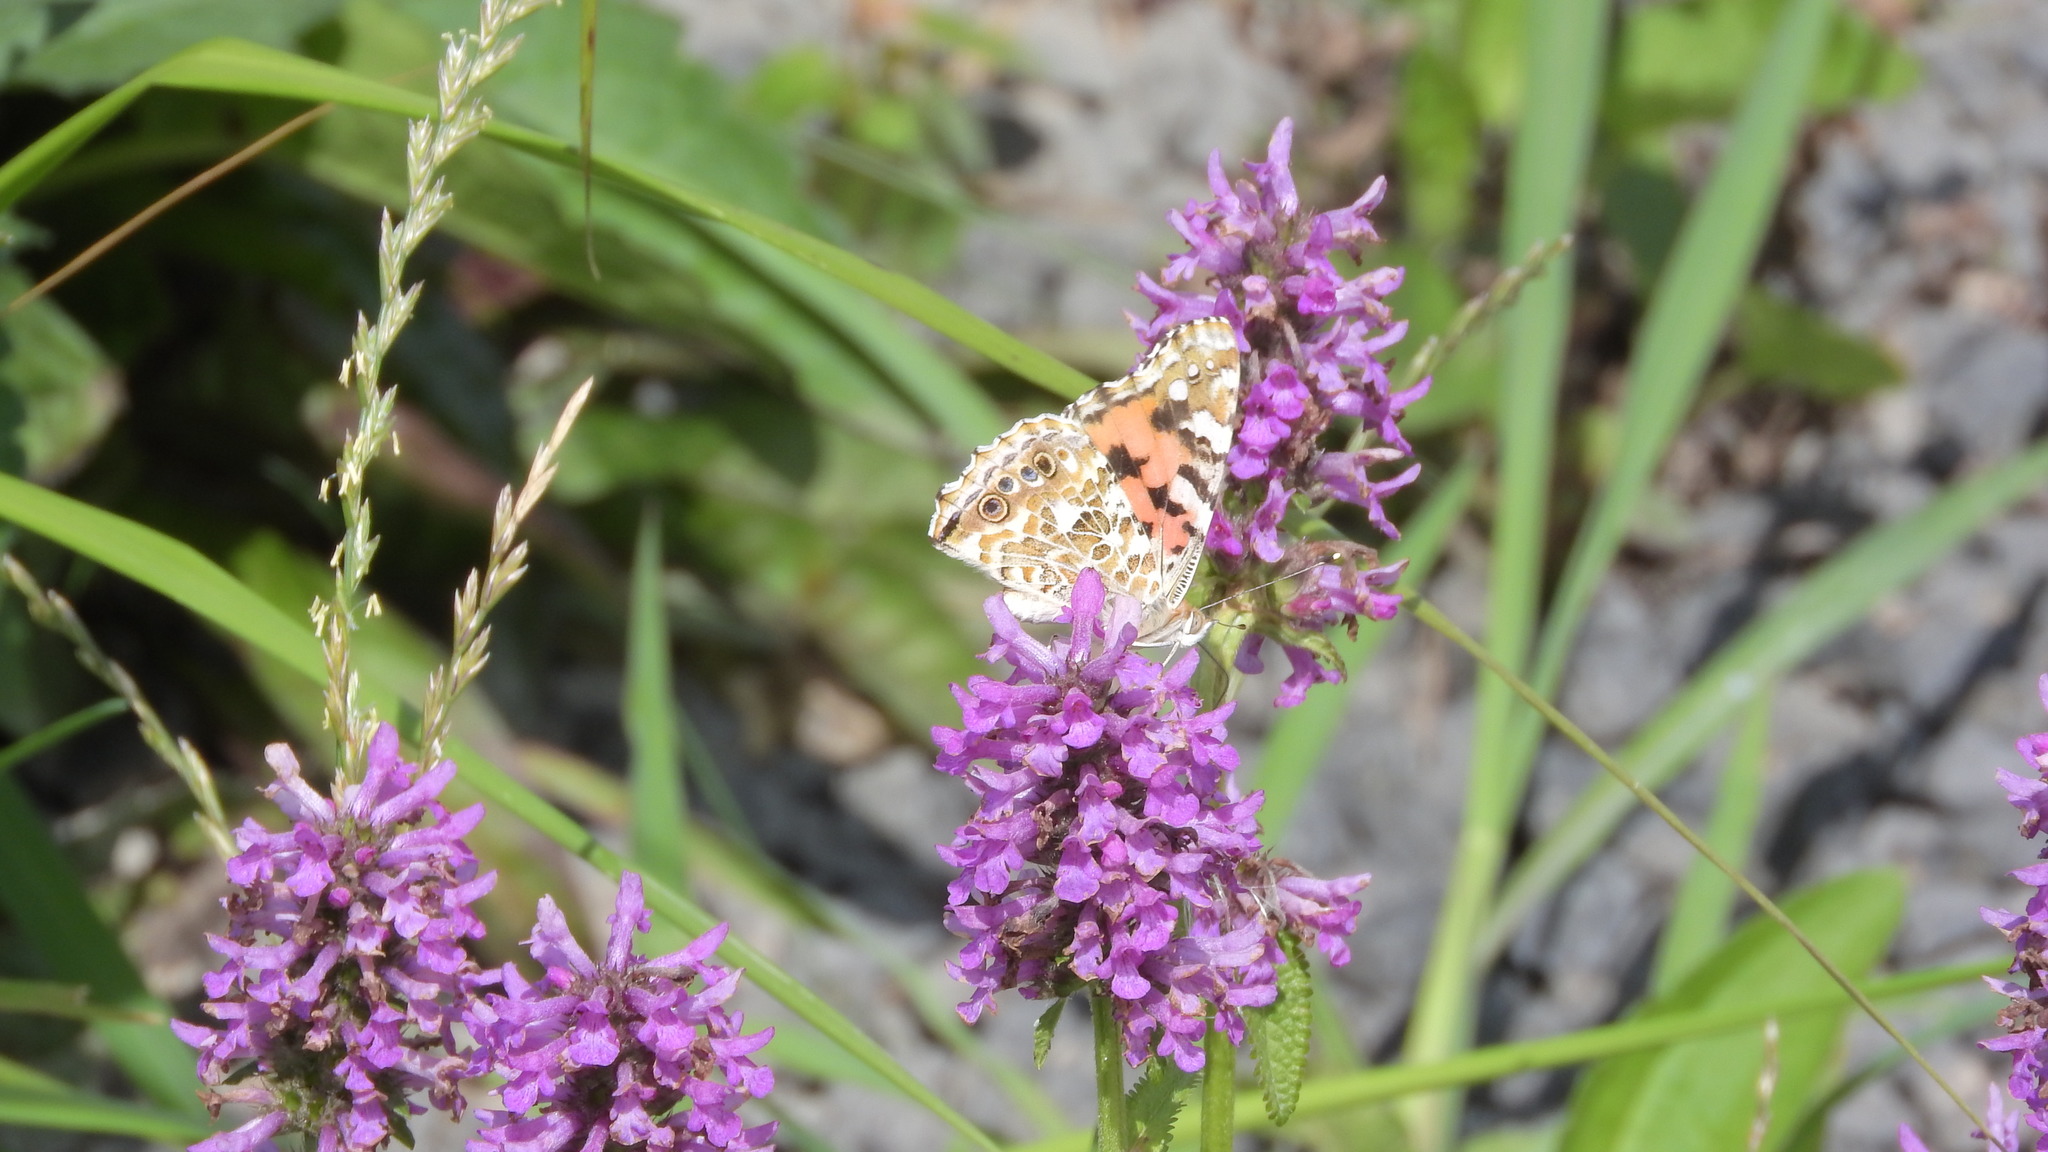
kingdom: Animalia
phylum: Arthropoda
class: Insecta
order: Lepidoptera
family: Nymphalidae
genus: Vanessa
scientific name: Vanessa cardui
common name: Painted lady
